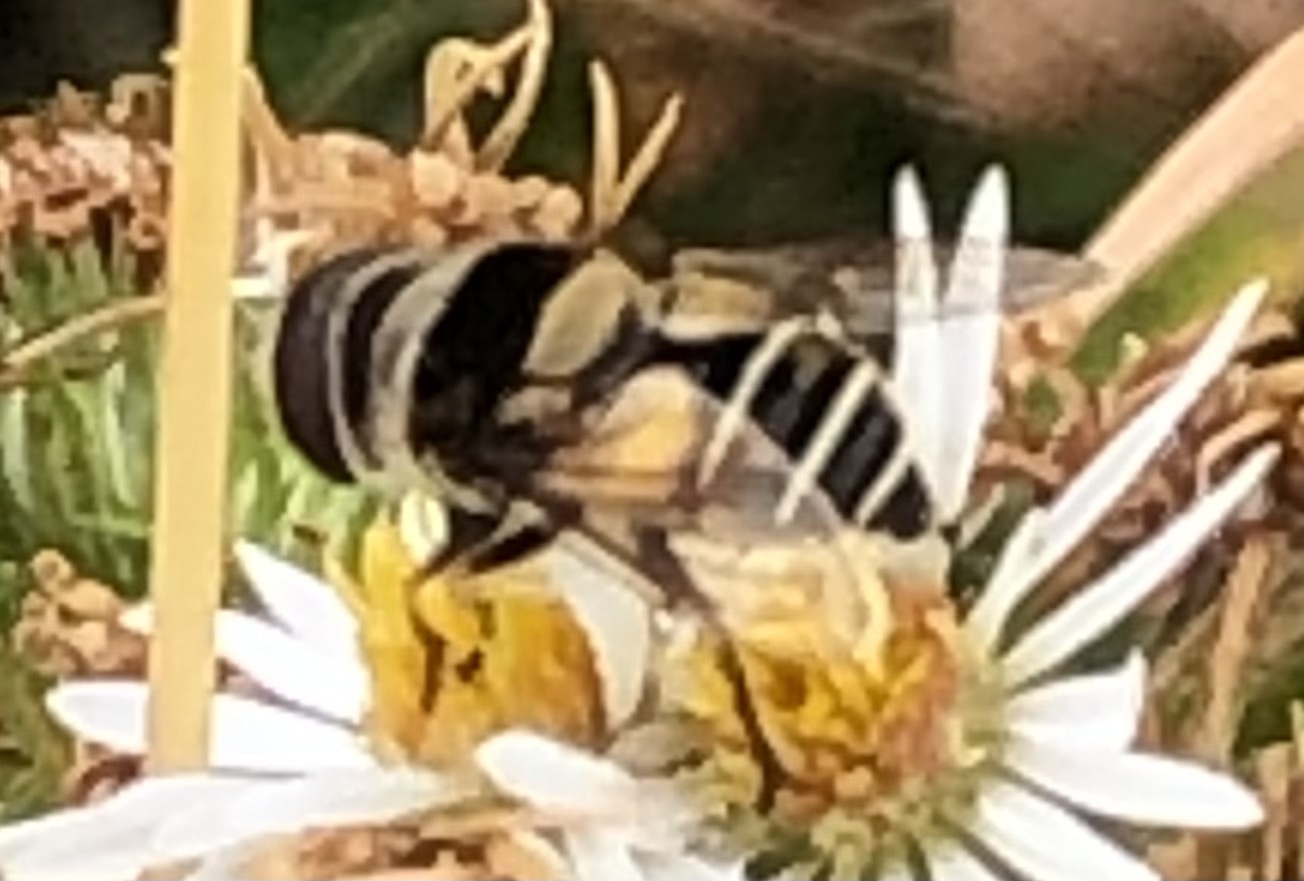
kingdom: Animalia
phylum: Arthropoda
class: Insecta
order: Diptera
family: Syrphidae
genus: Palpada
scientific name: Palpada pusilla
